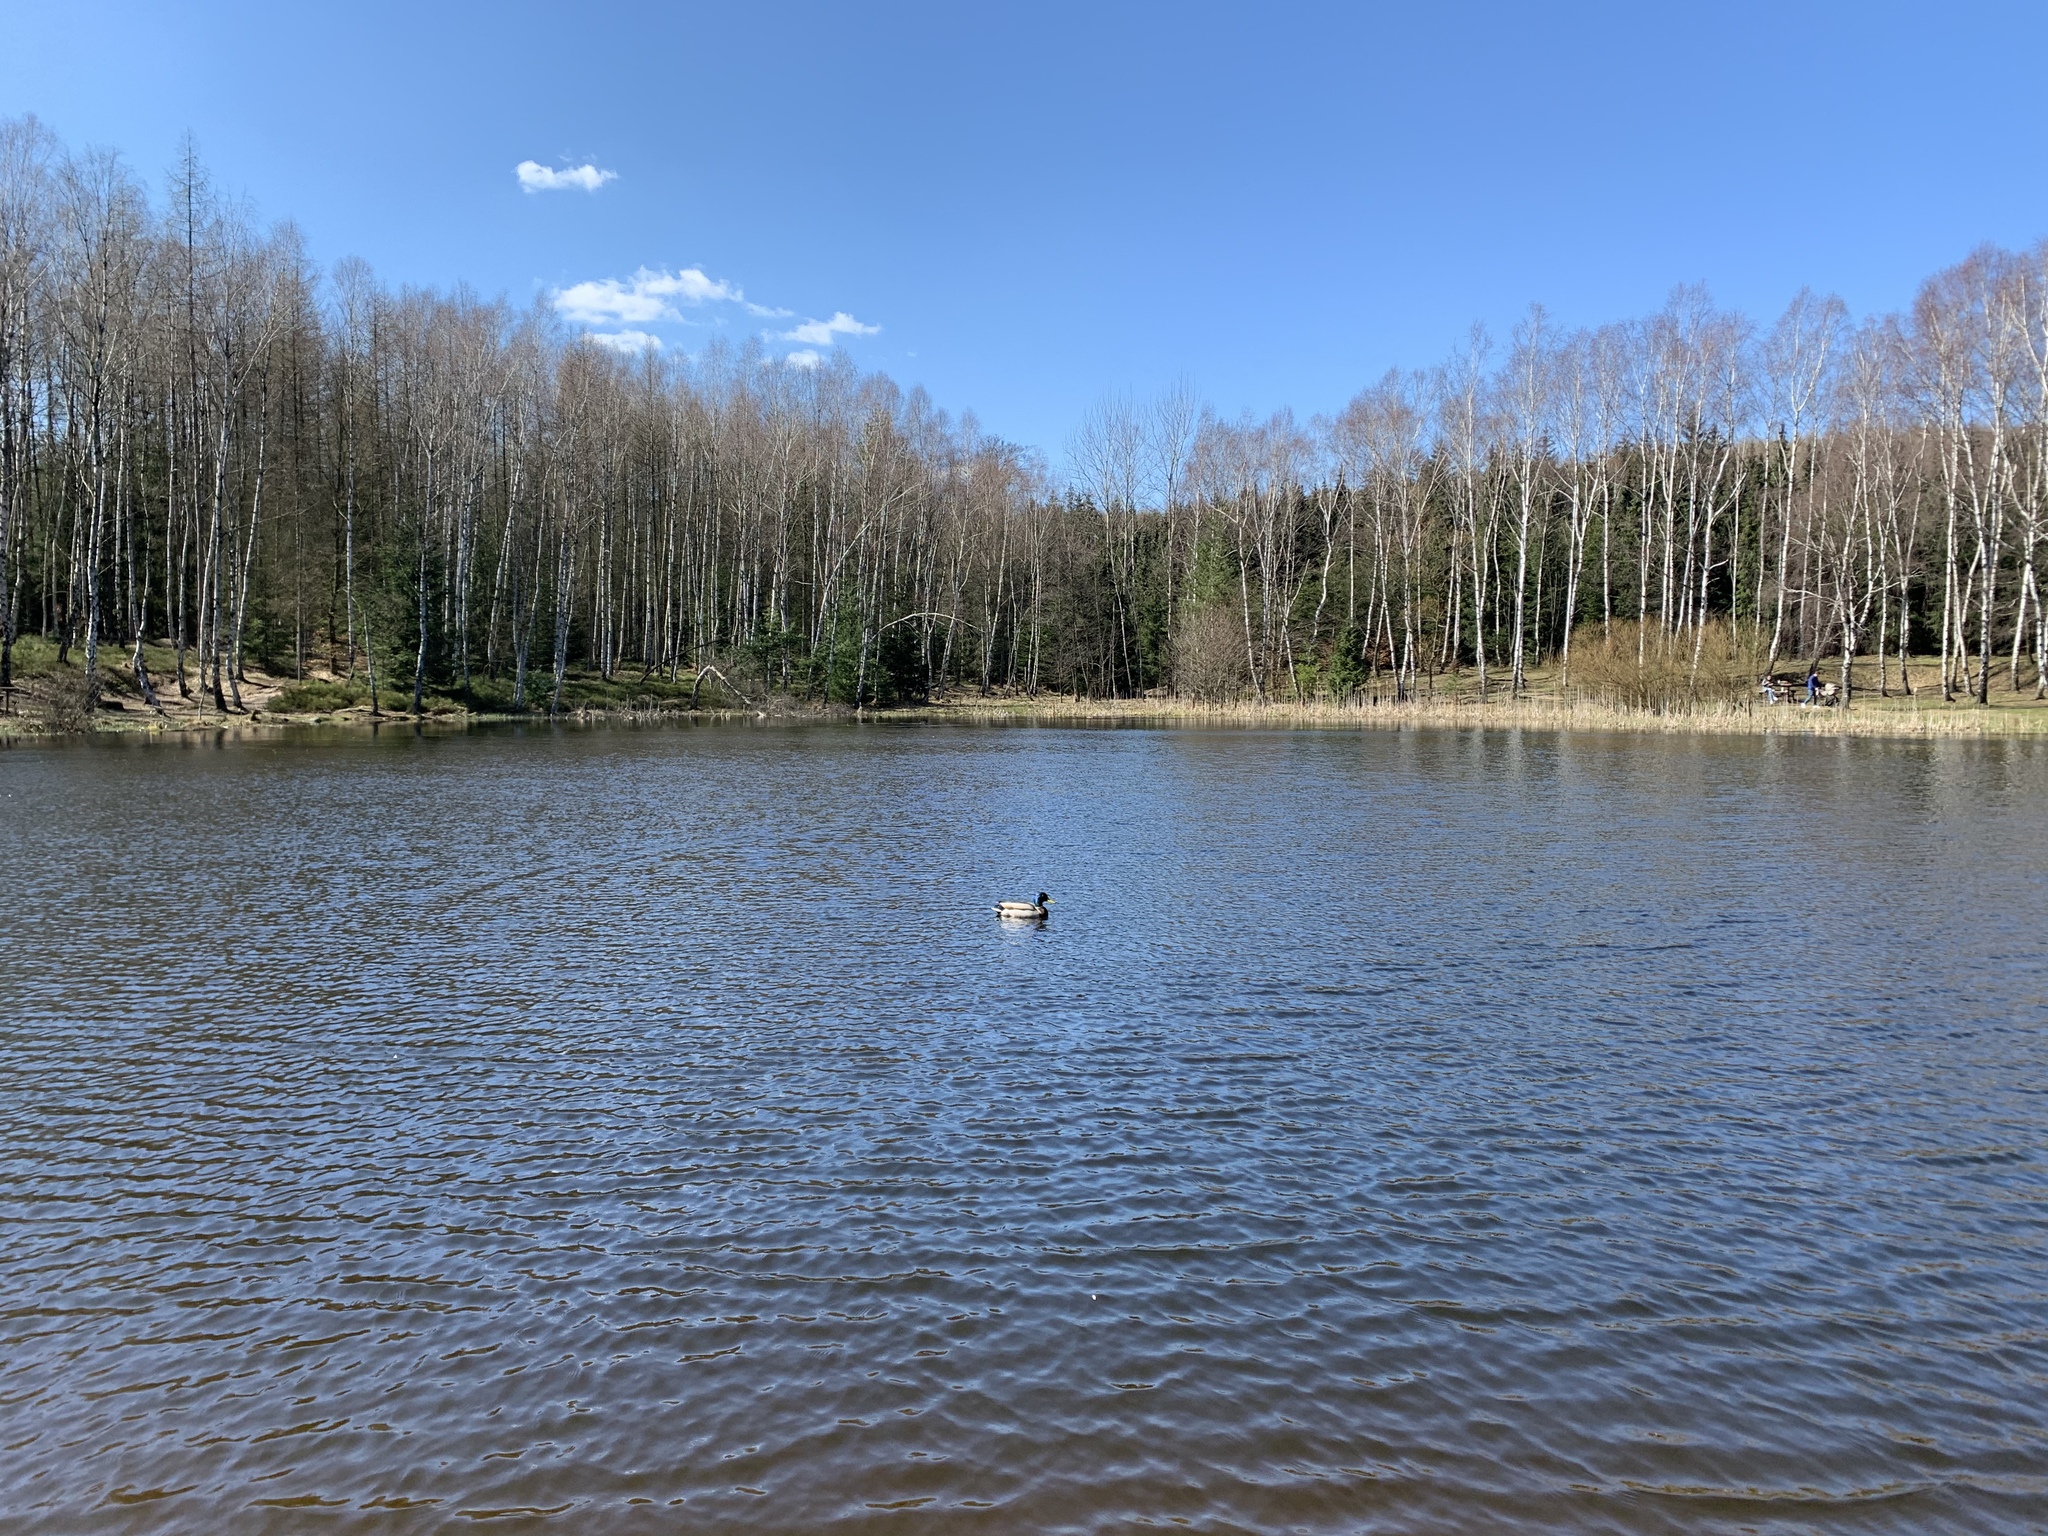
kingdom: Animalia
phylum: Chordata
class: Aves
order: Anseriformes
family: Anatidae
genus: Anas
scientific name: Anas platyrhynchos
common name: Mallard
